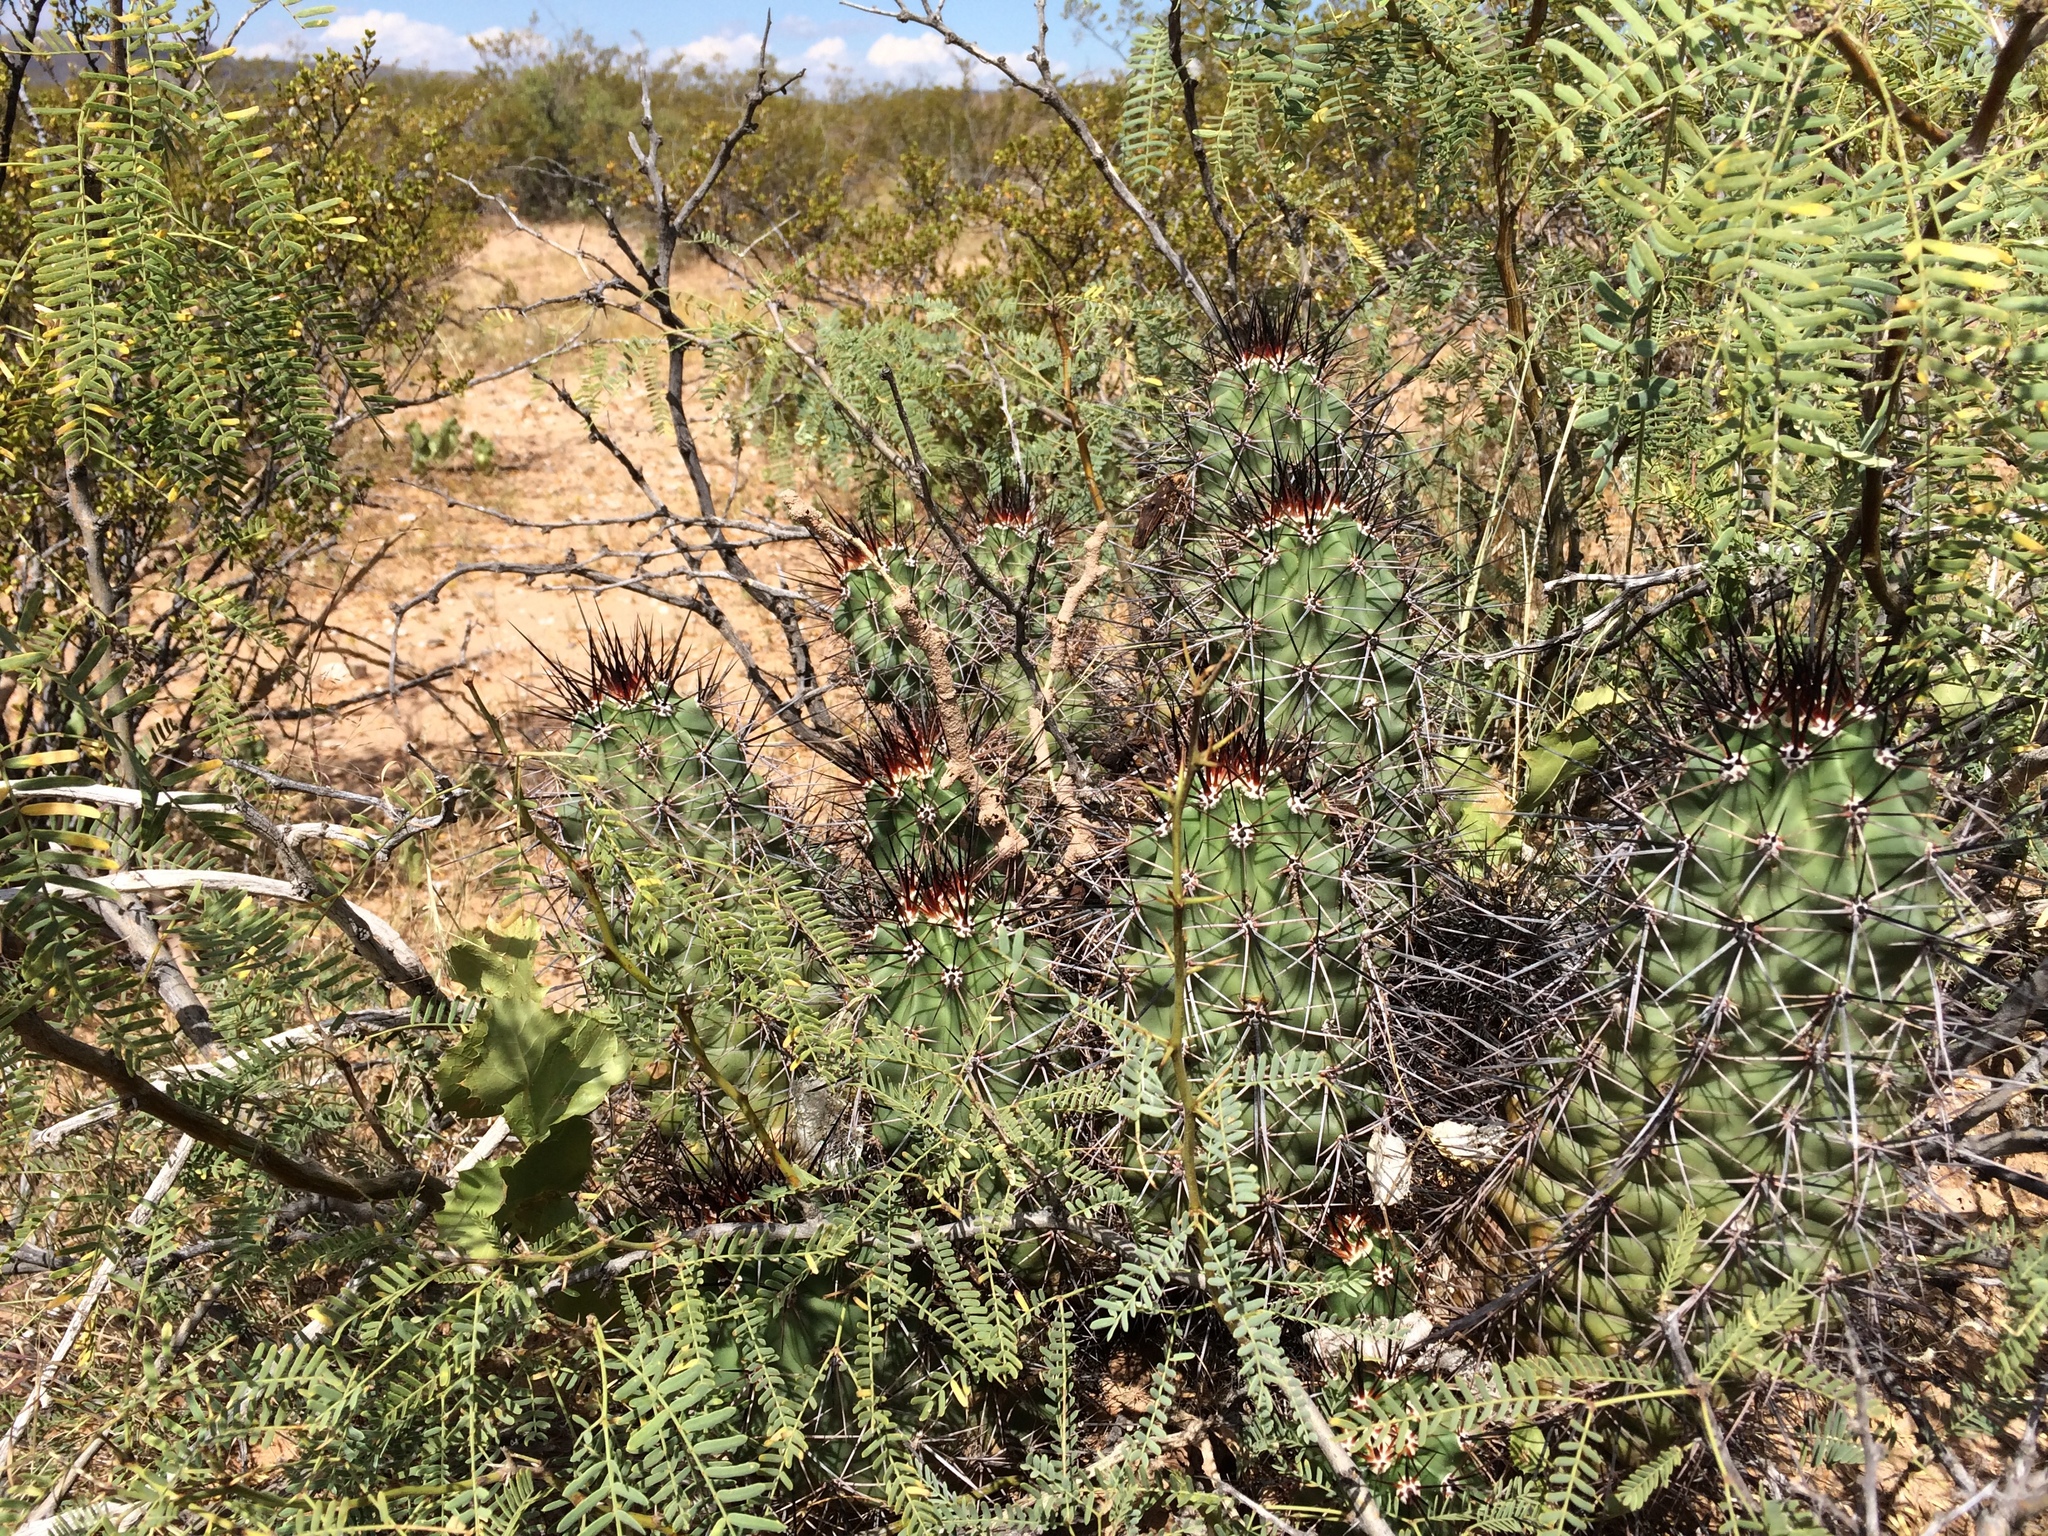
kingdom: Plantae
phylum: Tracheophyta
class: Magnoliopsida
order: Caryophyllales
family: Cactaceae
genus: Echinocereus
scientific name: Echinocereus coccineus
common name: Scarlet hedgehog cactus
